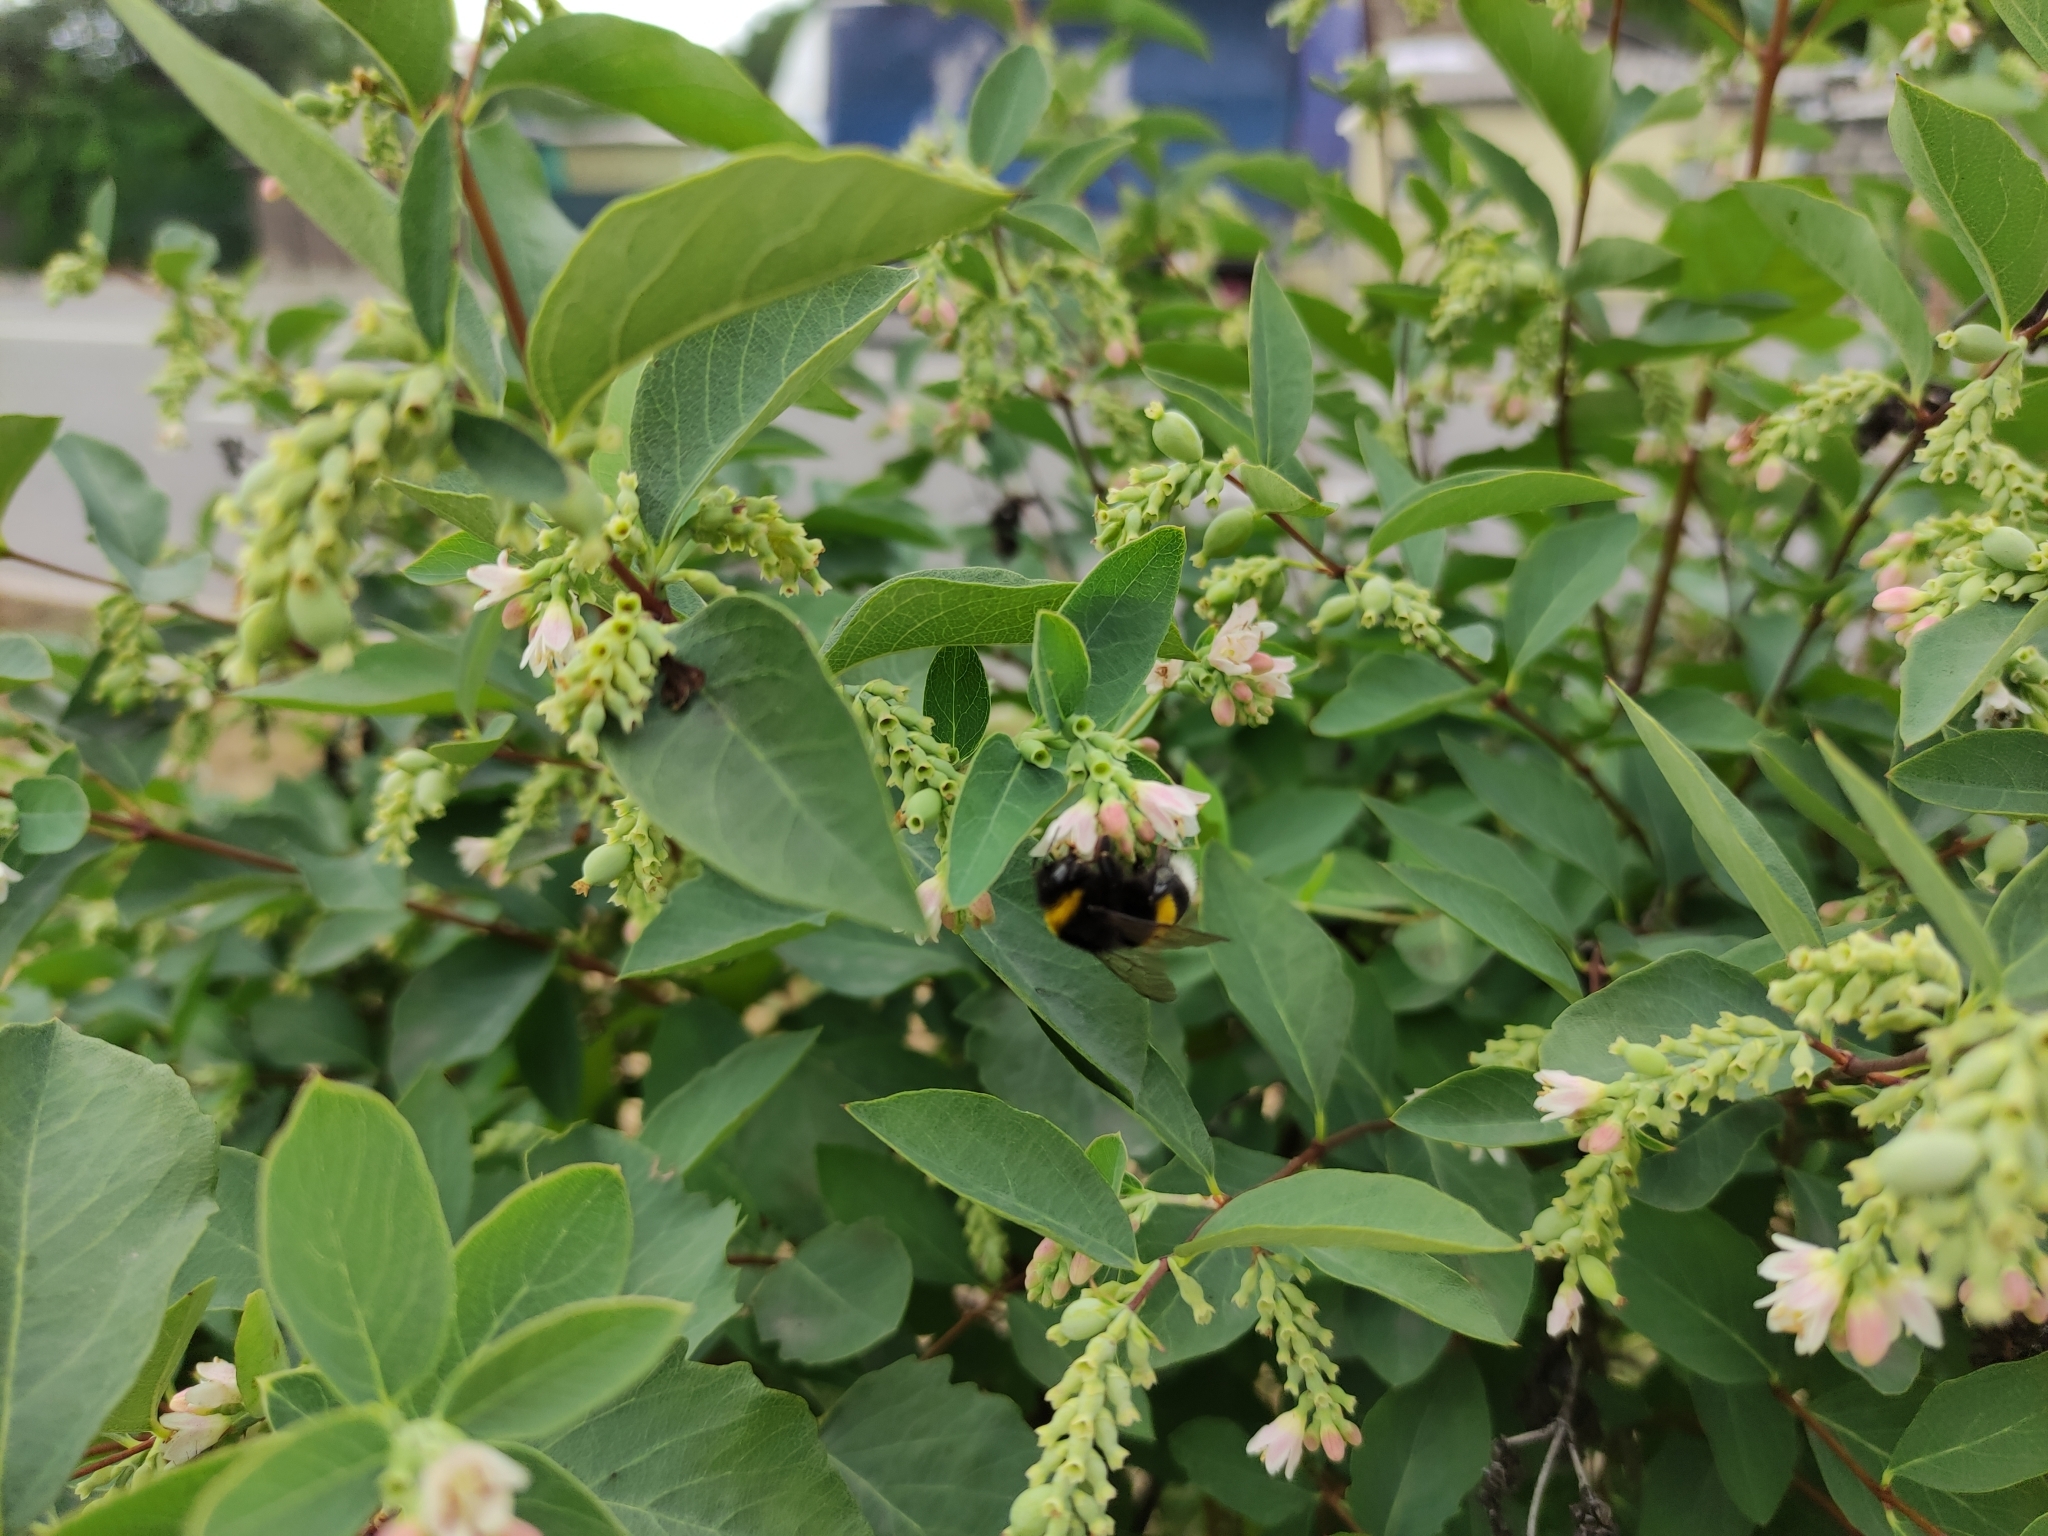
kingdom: Animalia
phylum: Arthropoda
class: Insecta
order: Hymenoptera
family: Apidae
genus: Bombus
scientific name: Bombus
